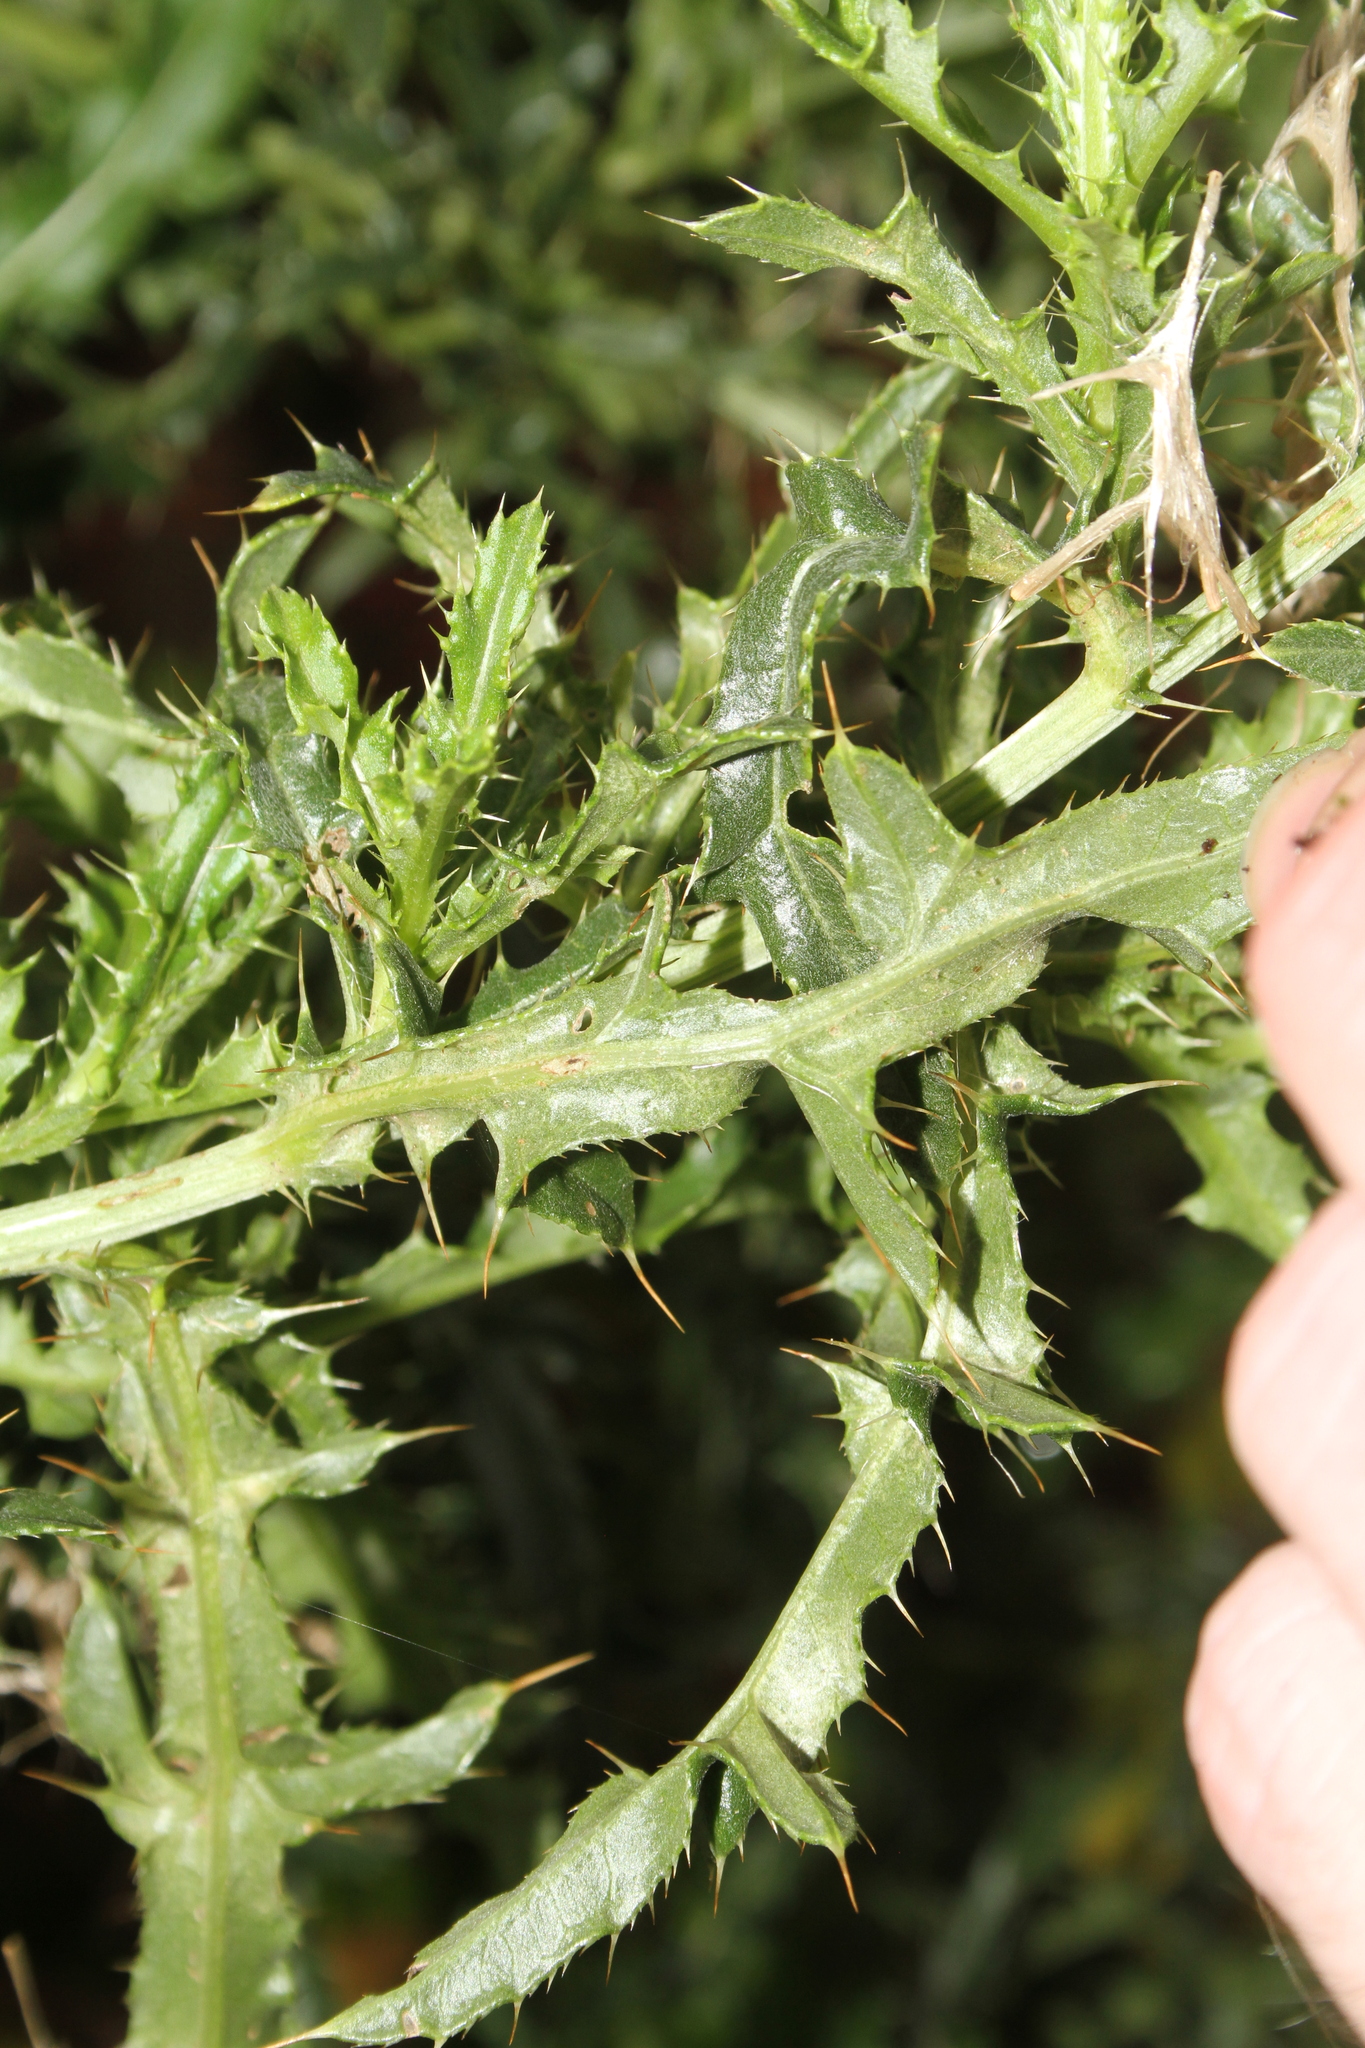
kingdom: Plantae
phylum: Tracheophyta
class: Magnoliopsida
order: Asterales
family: Asteraceae
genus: Cirsium
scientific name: Cirsium arvense
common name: Creeping thistle
